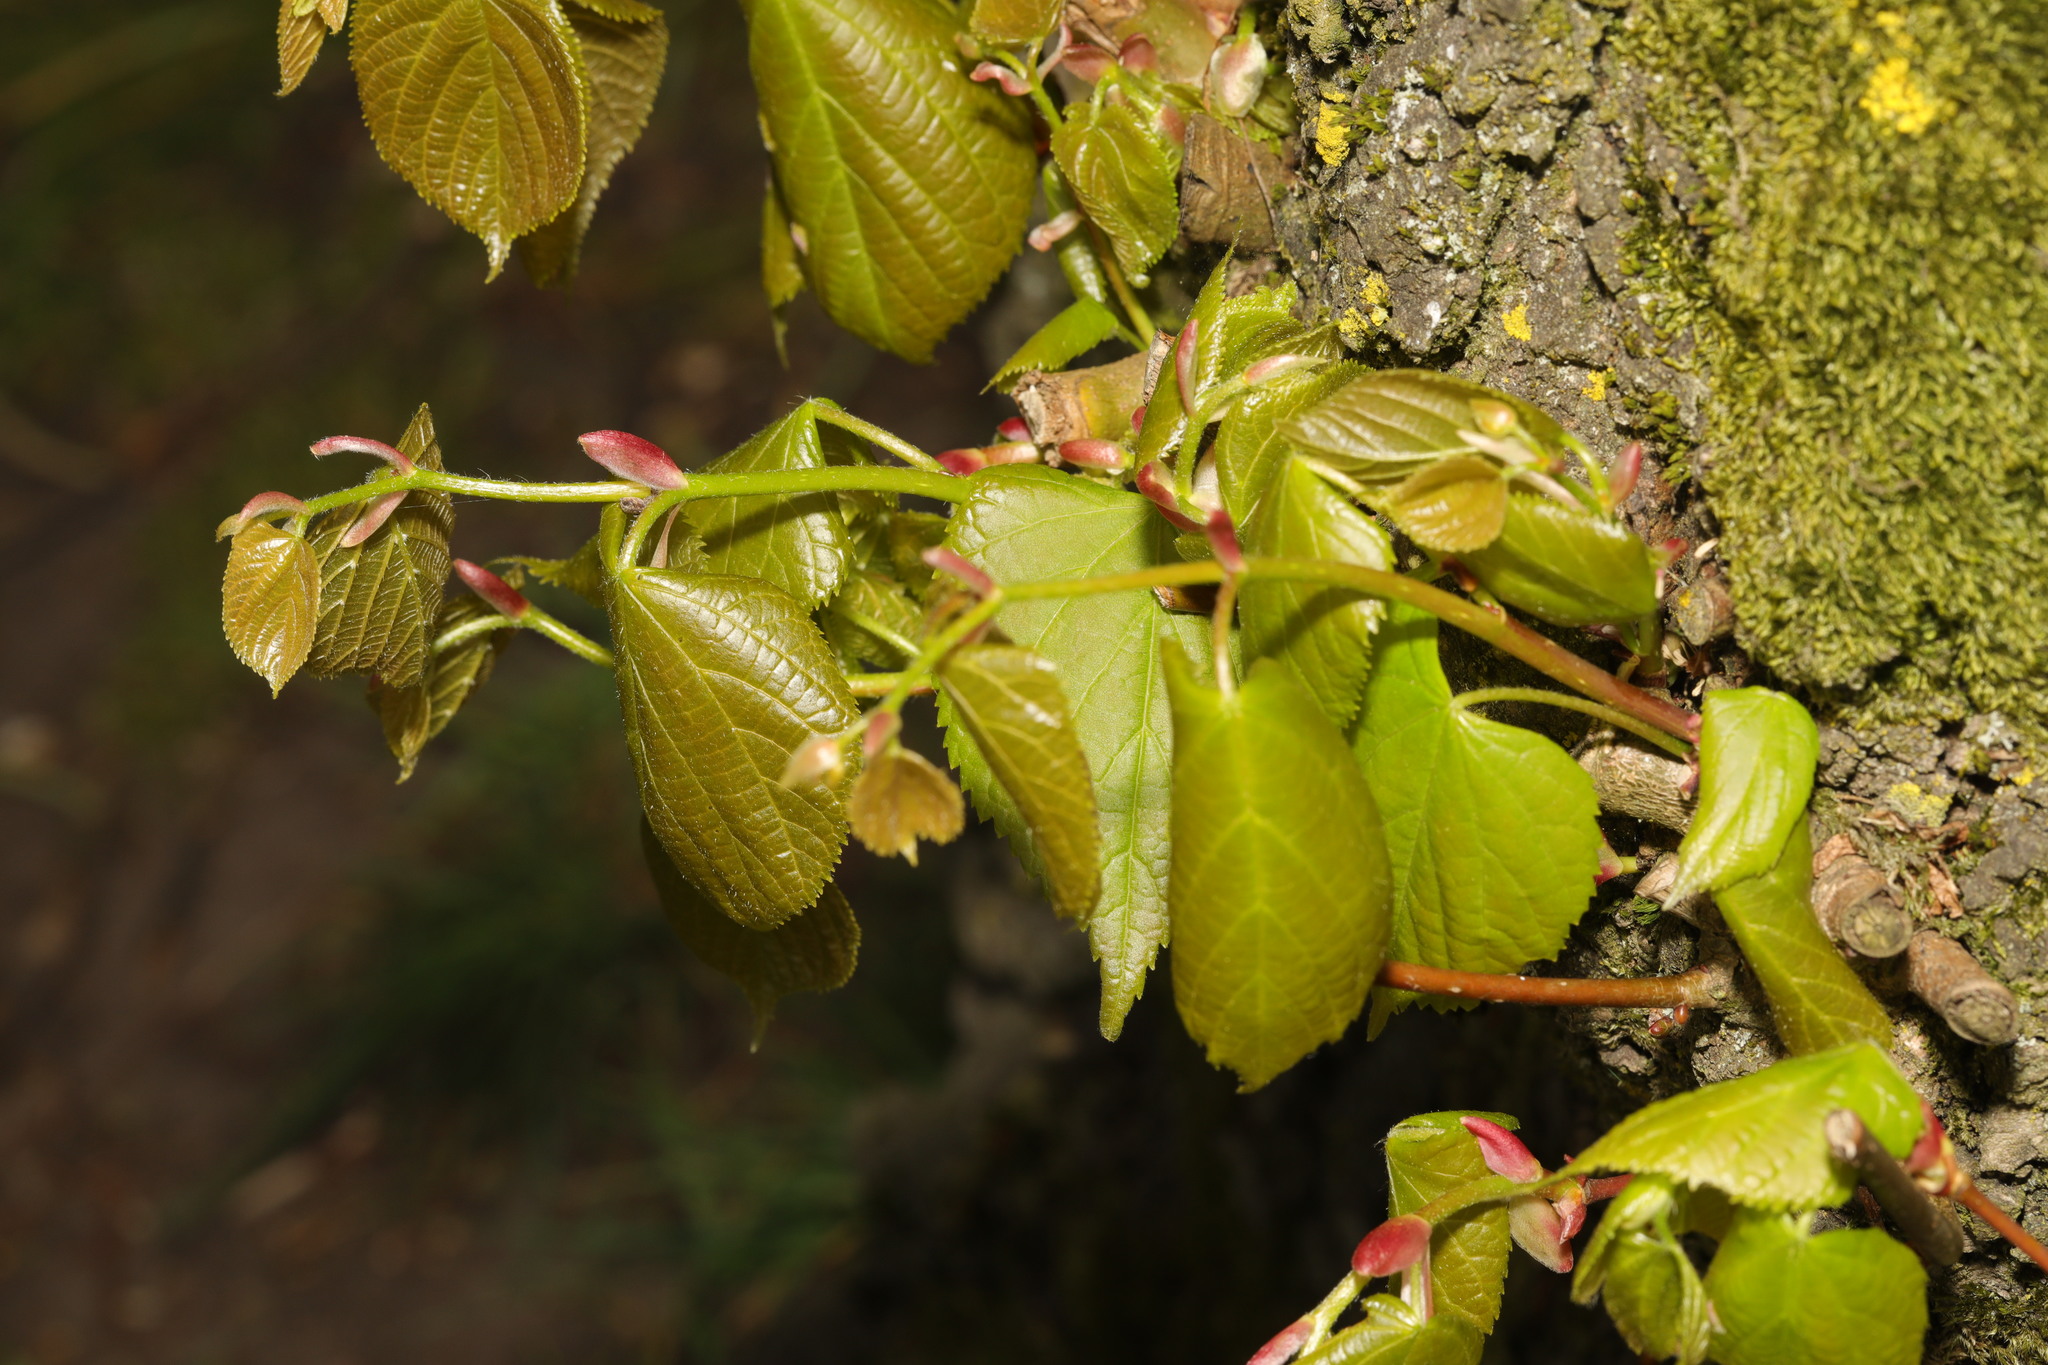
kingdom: Plantae
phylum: Tracheophyta
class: Magnoliopsida
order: Malvales
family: Malvaceae
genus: Tilia
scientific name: Tilia europaea
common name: European linden
